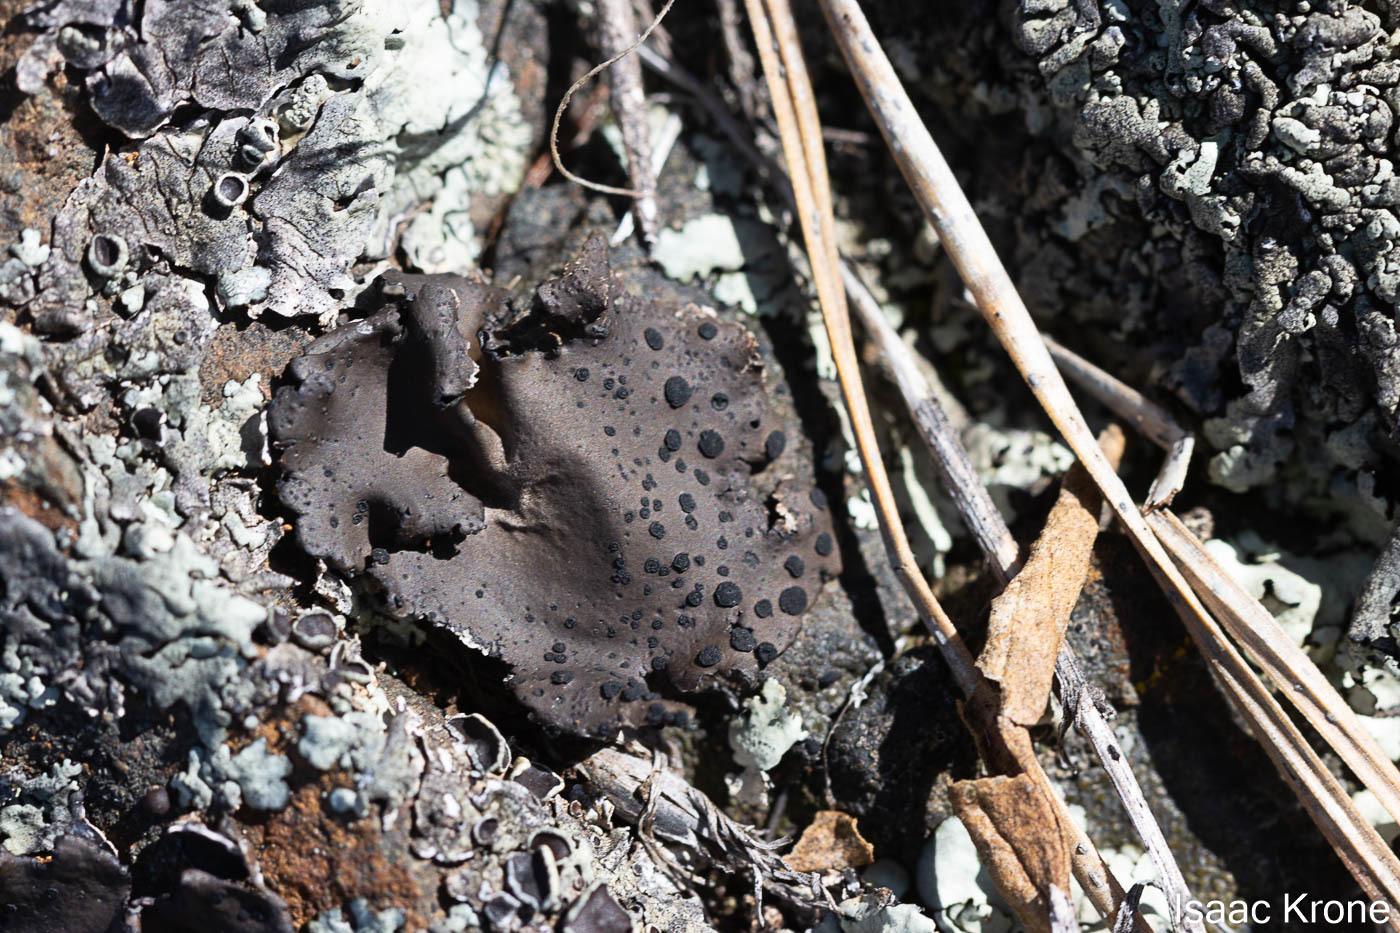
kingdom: Fungi
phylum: Ascomycota
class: Lecanoromycetes
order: Umbilicariales
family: Umbilicariaceae
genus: Umbilicaria
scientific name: Umbilicaria phaea
